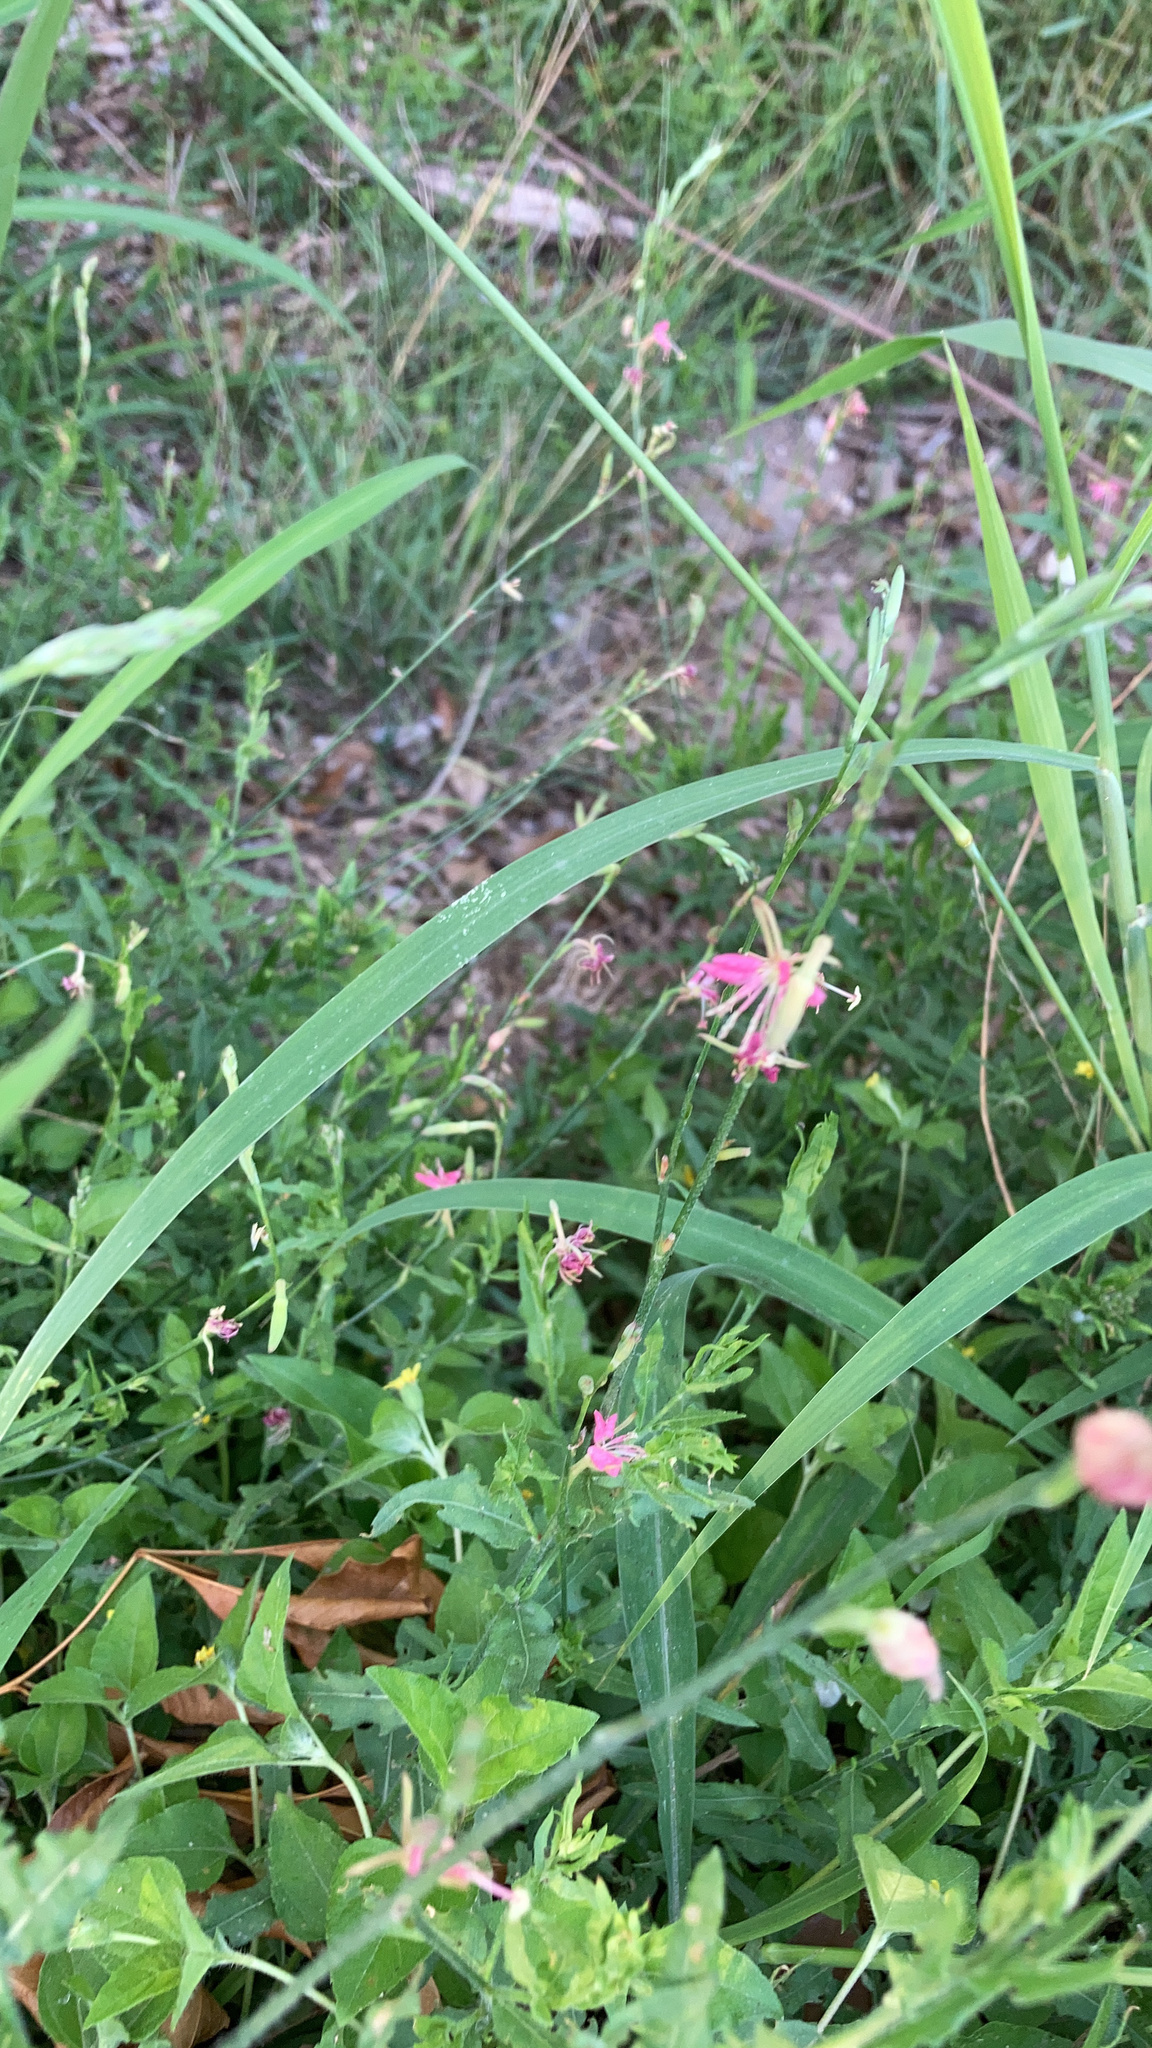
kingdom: Plantae
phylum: Tracheophyta
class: Magnoliopsida
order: Myrtales
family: Onagraceae
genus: Oenothera
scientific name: Oenothera hispida
